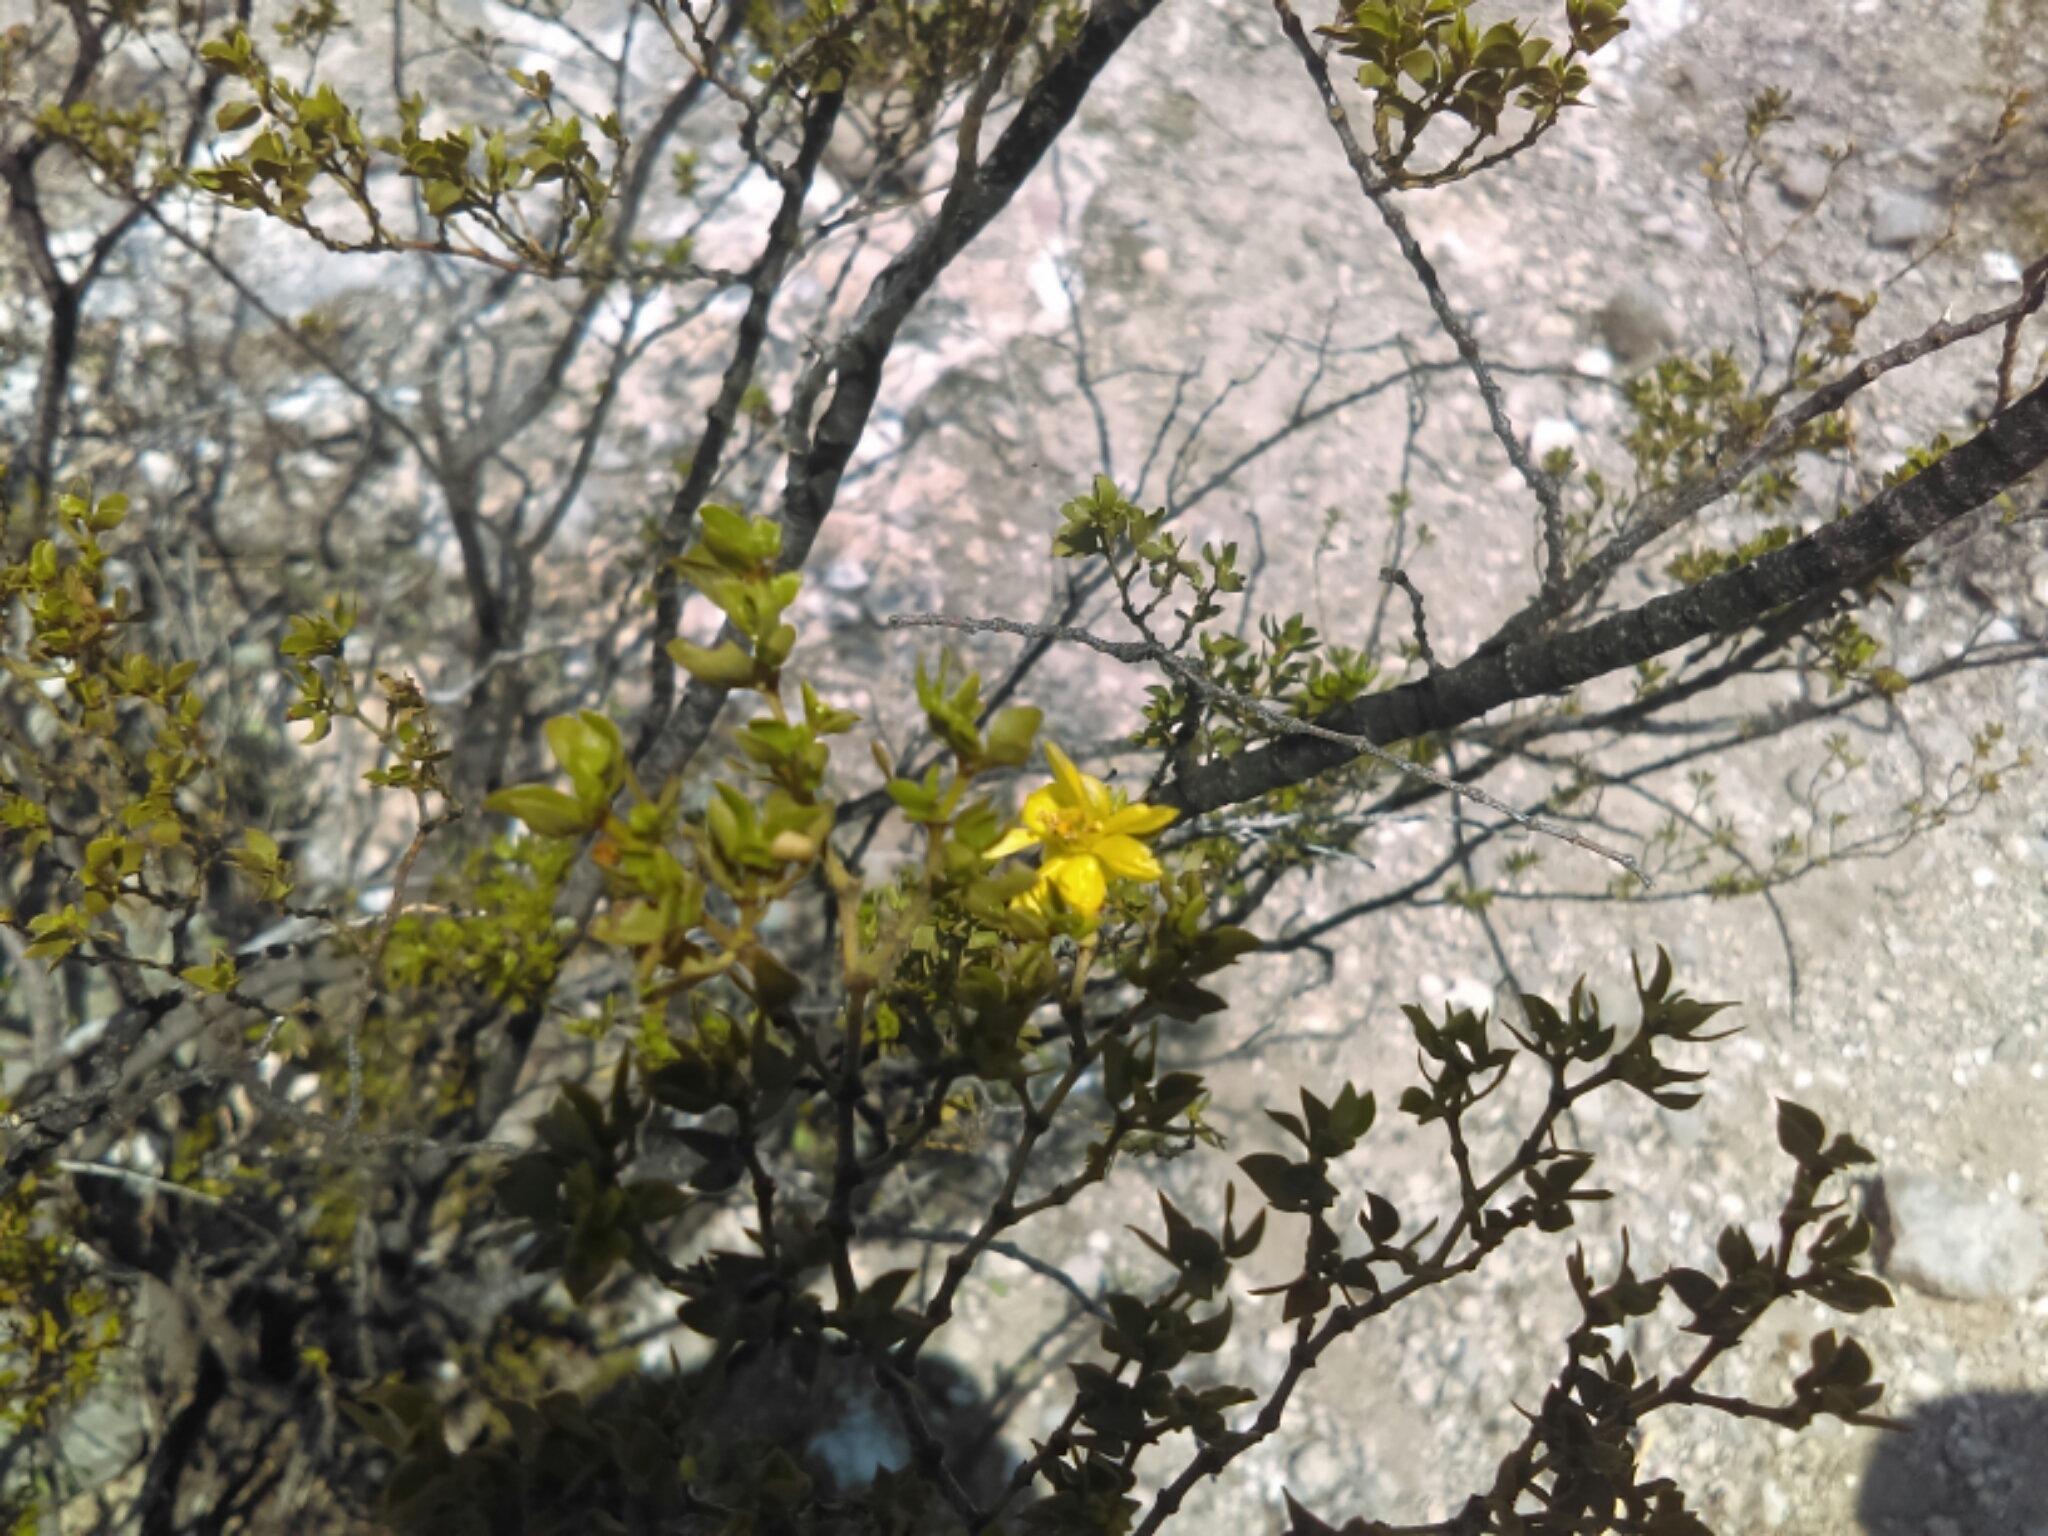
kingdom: Plantae
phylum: Tracheophyta
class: Magnoliopsida
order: Zygophyllales
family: Zygophyllaceae
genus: Larrea
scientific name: Larrea tridentata
